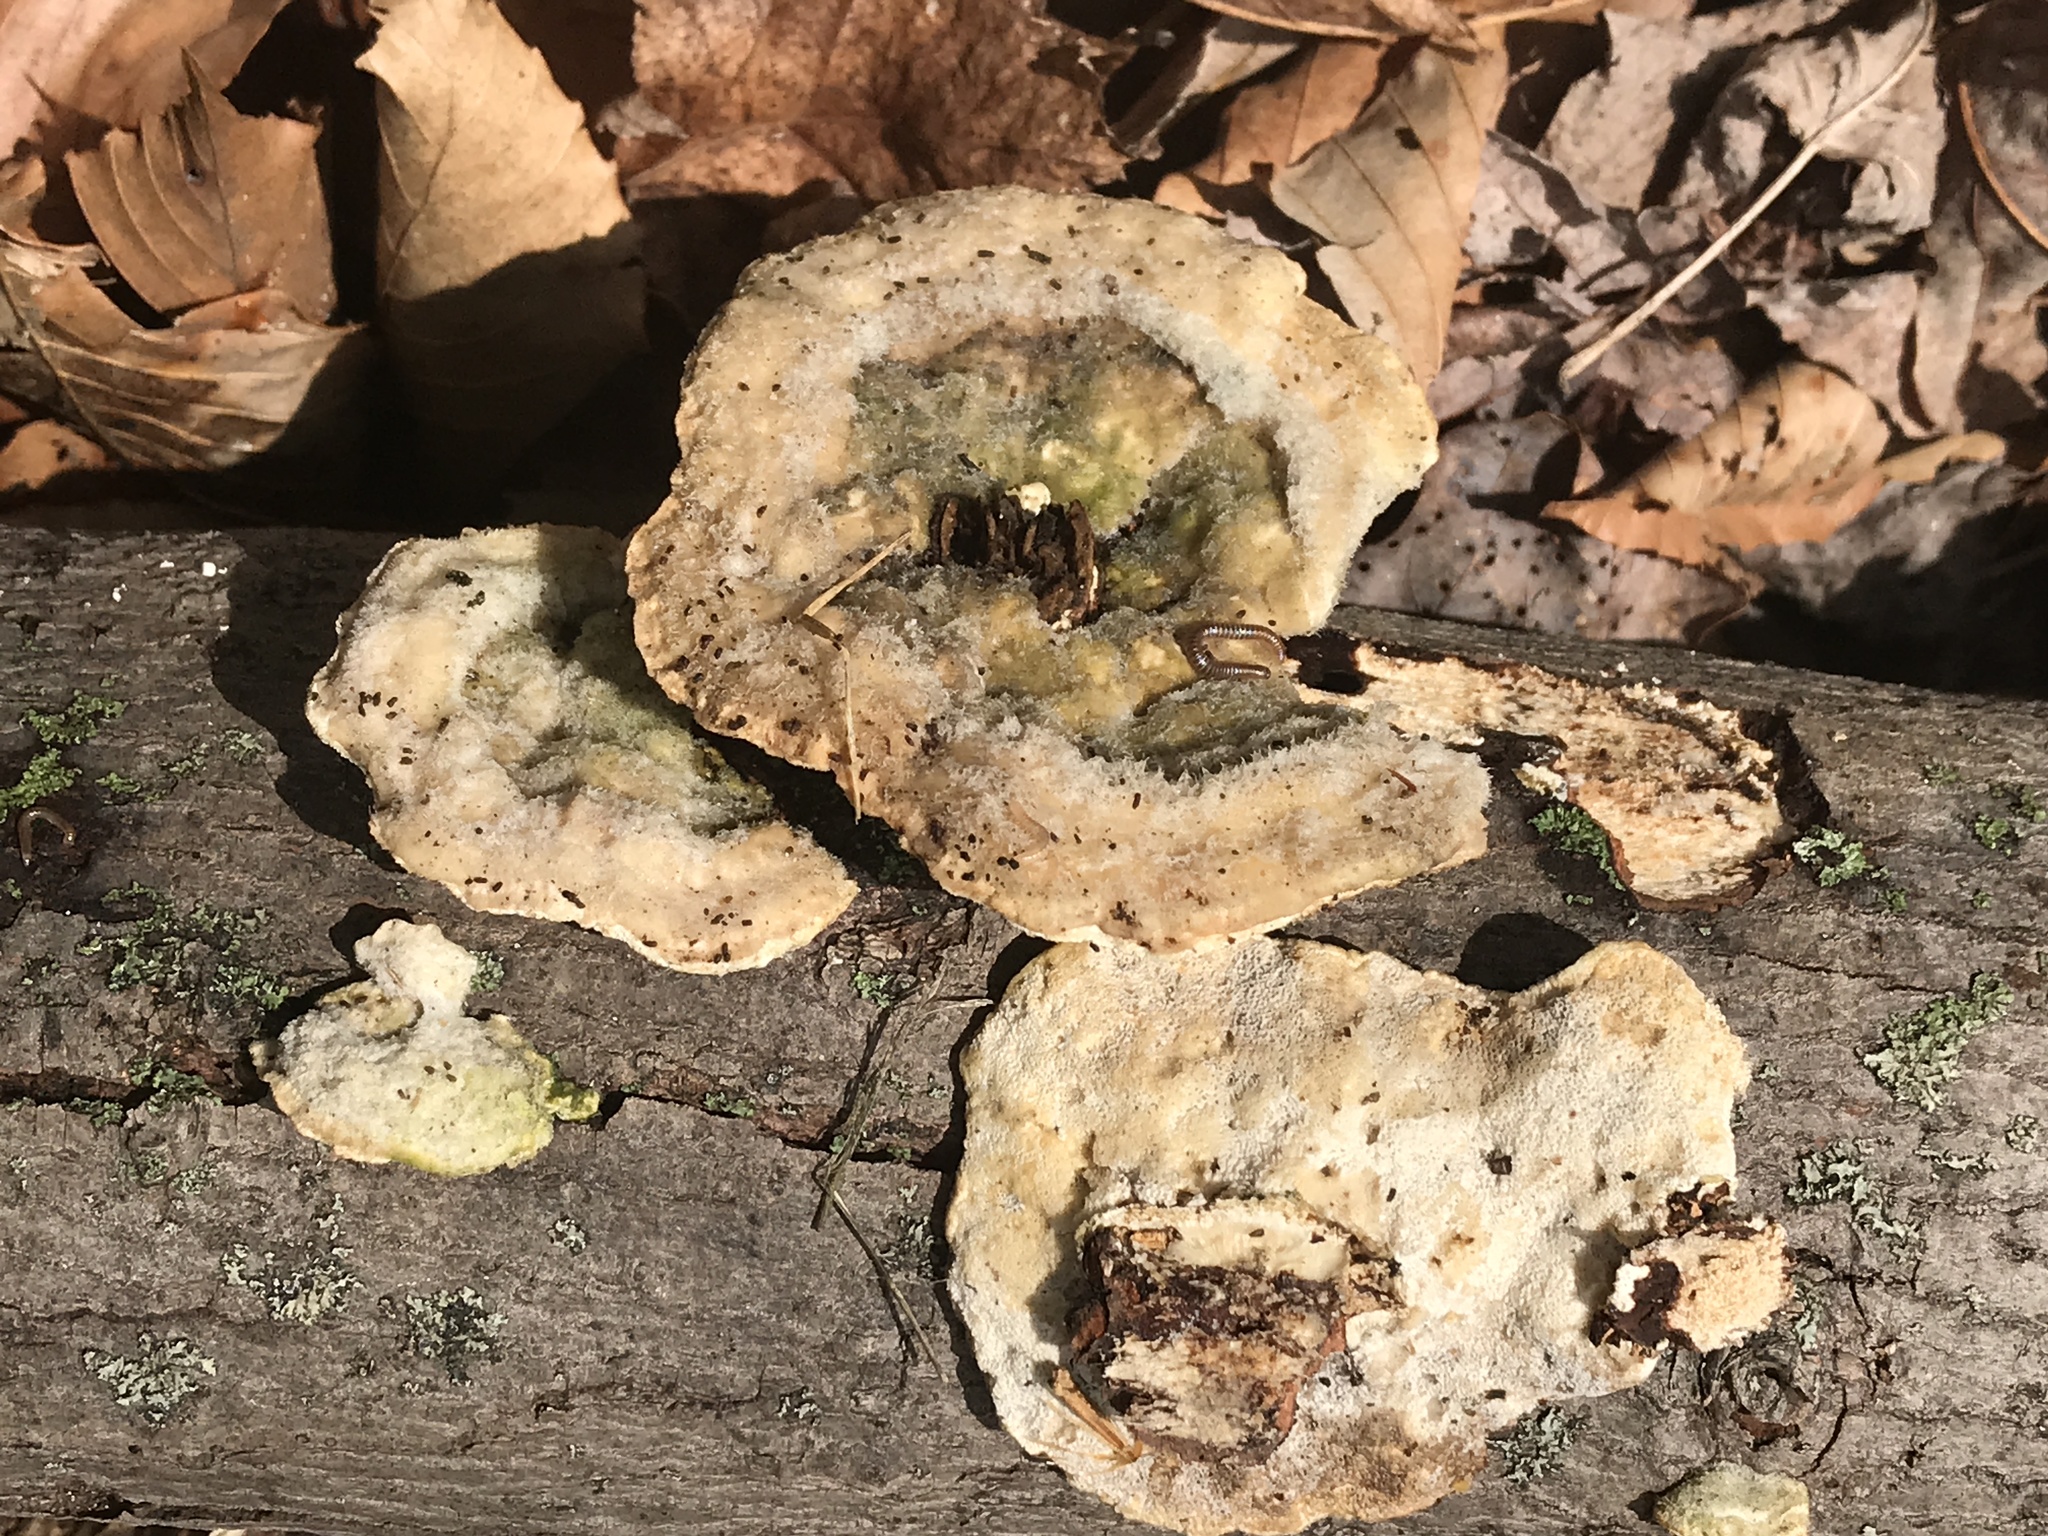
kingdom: Fungi
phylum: Basidiomycota
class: Agaricomycetes
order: Polyporales
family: Polyporaceae
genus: Trametes
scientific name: Trametes gibbosa
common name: Lumpy bracket
